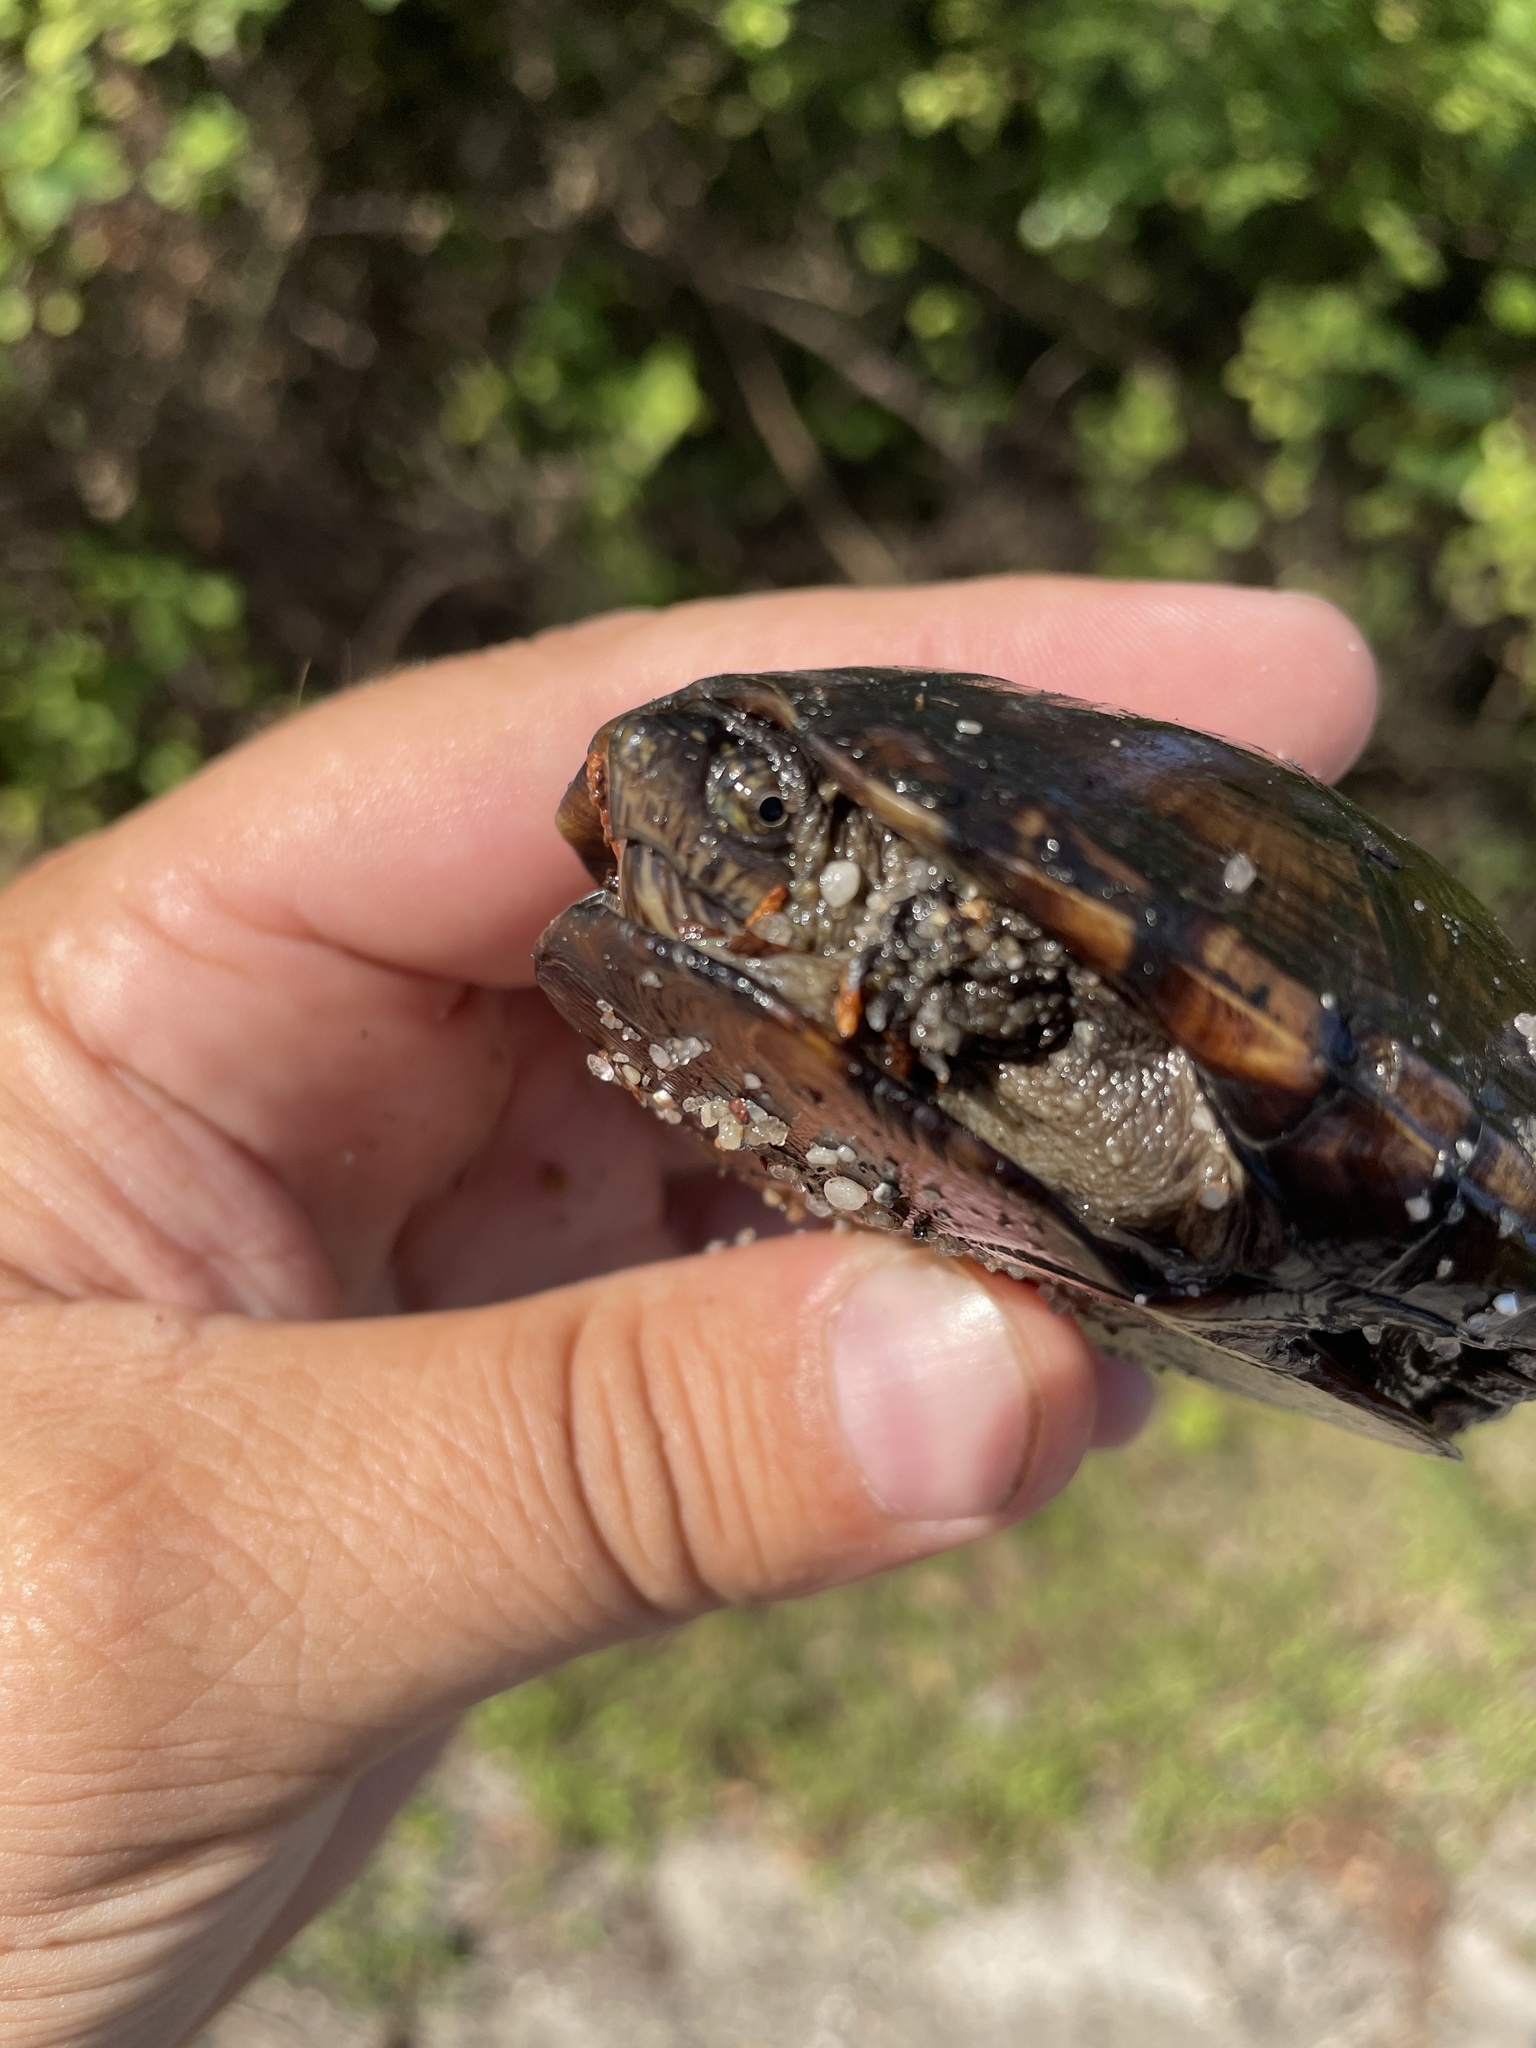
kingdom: Animalia
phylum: Chordata
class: Testudines
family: Kinosternidae
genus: Kinosternon
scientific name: Kinosternon subrubrum
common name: Eastern mud turtle
